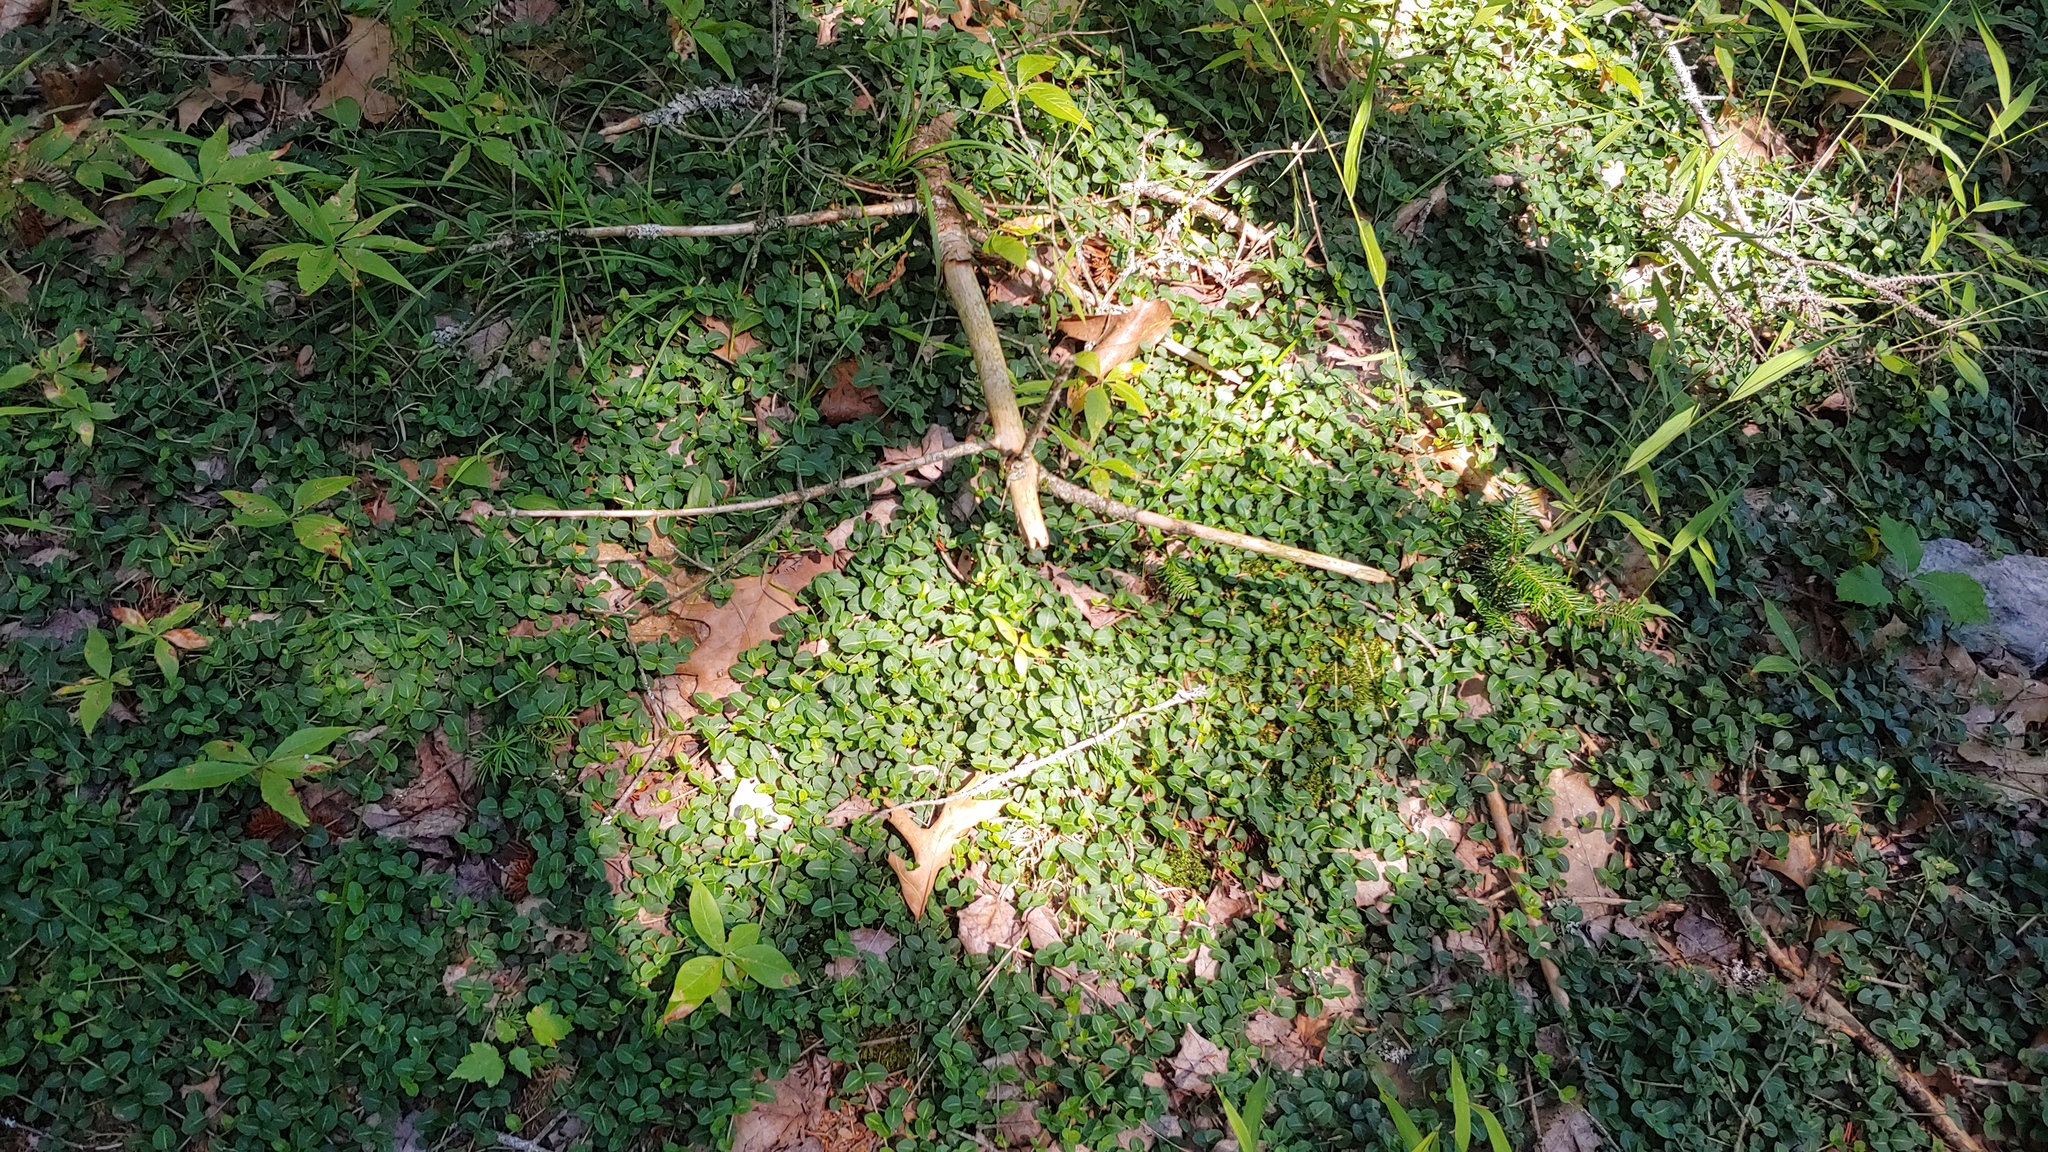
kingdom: Plantae
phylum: Tracheophyta
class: Magnoliopsida
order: Gentianales
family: Rubiaceae
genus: Mitchella
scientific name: Mitchella repens
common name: Partridge-berry
